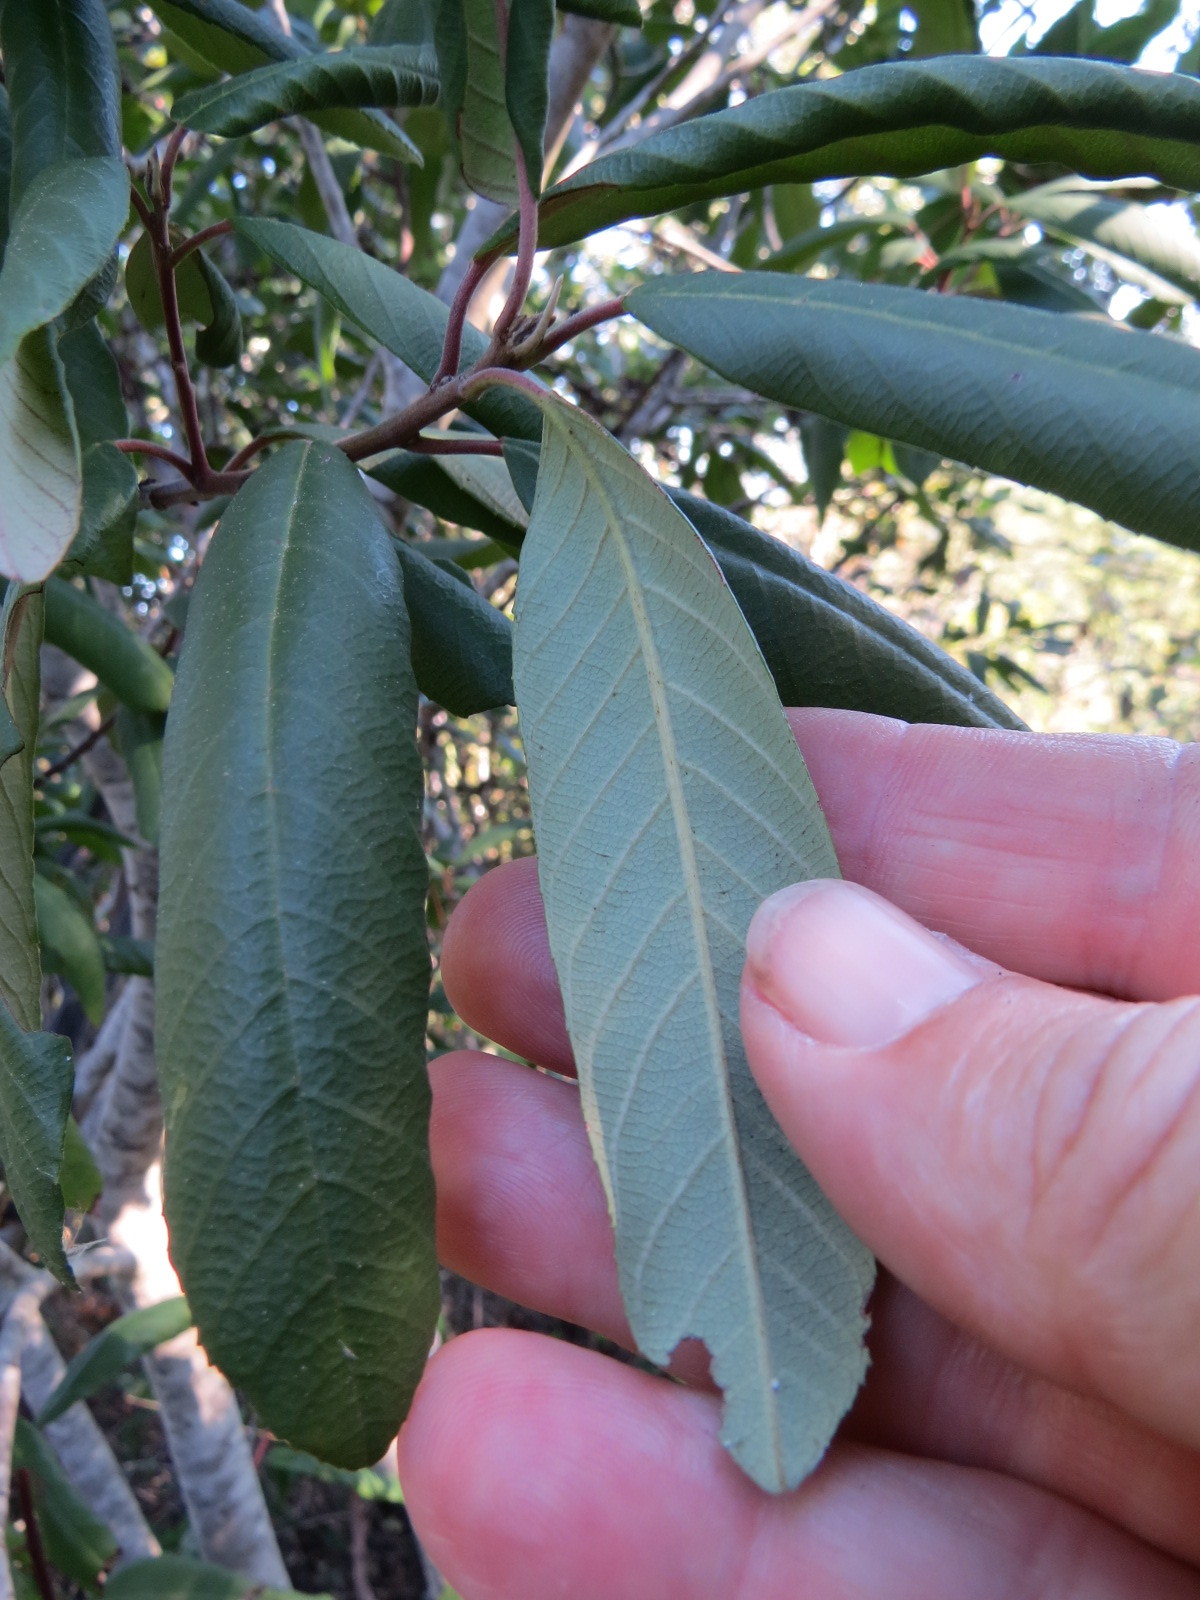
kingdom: Plantae
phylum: Tracheophyta
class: Magnoliopsida
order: Rosales
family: Rhamnaceae
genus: Frangula
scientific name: Frangula californica
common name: California buckthorn
